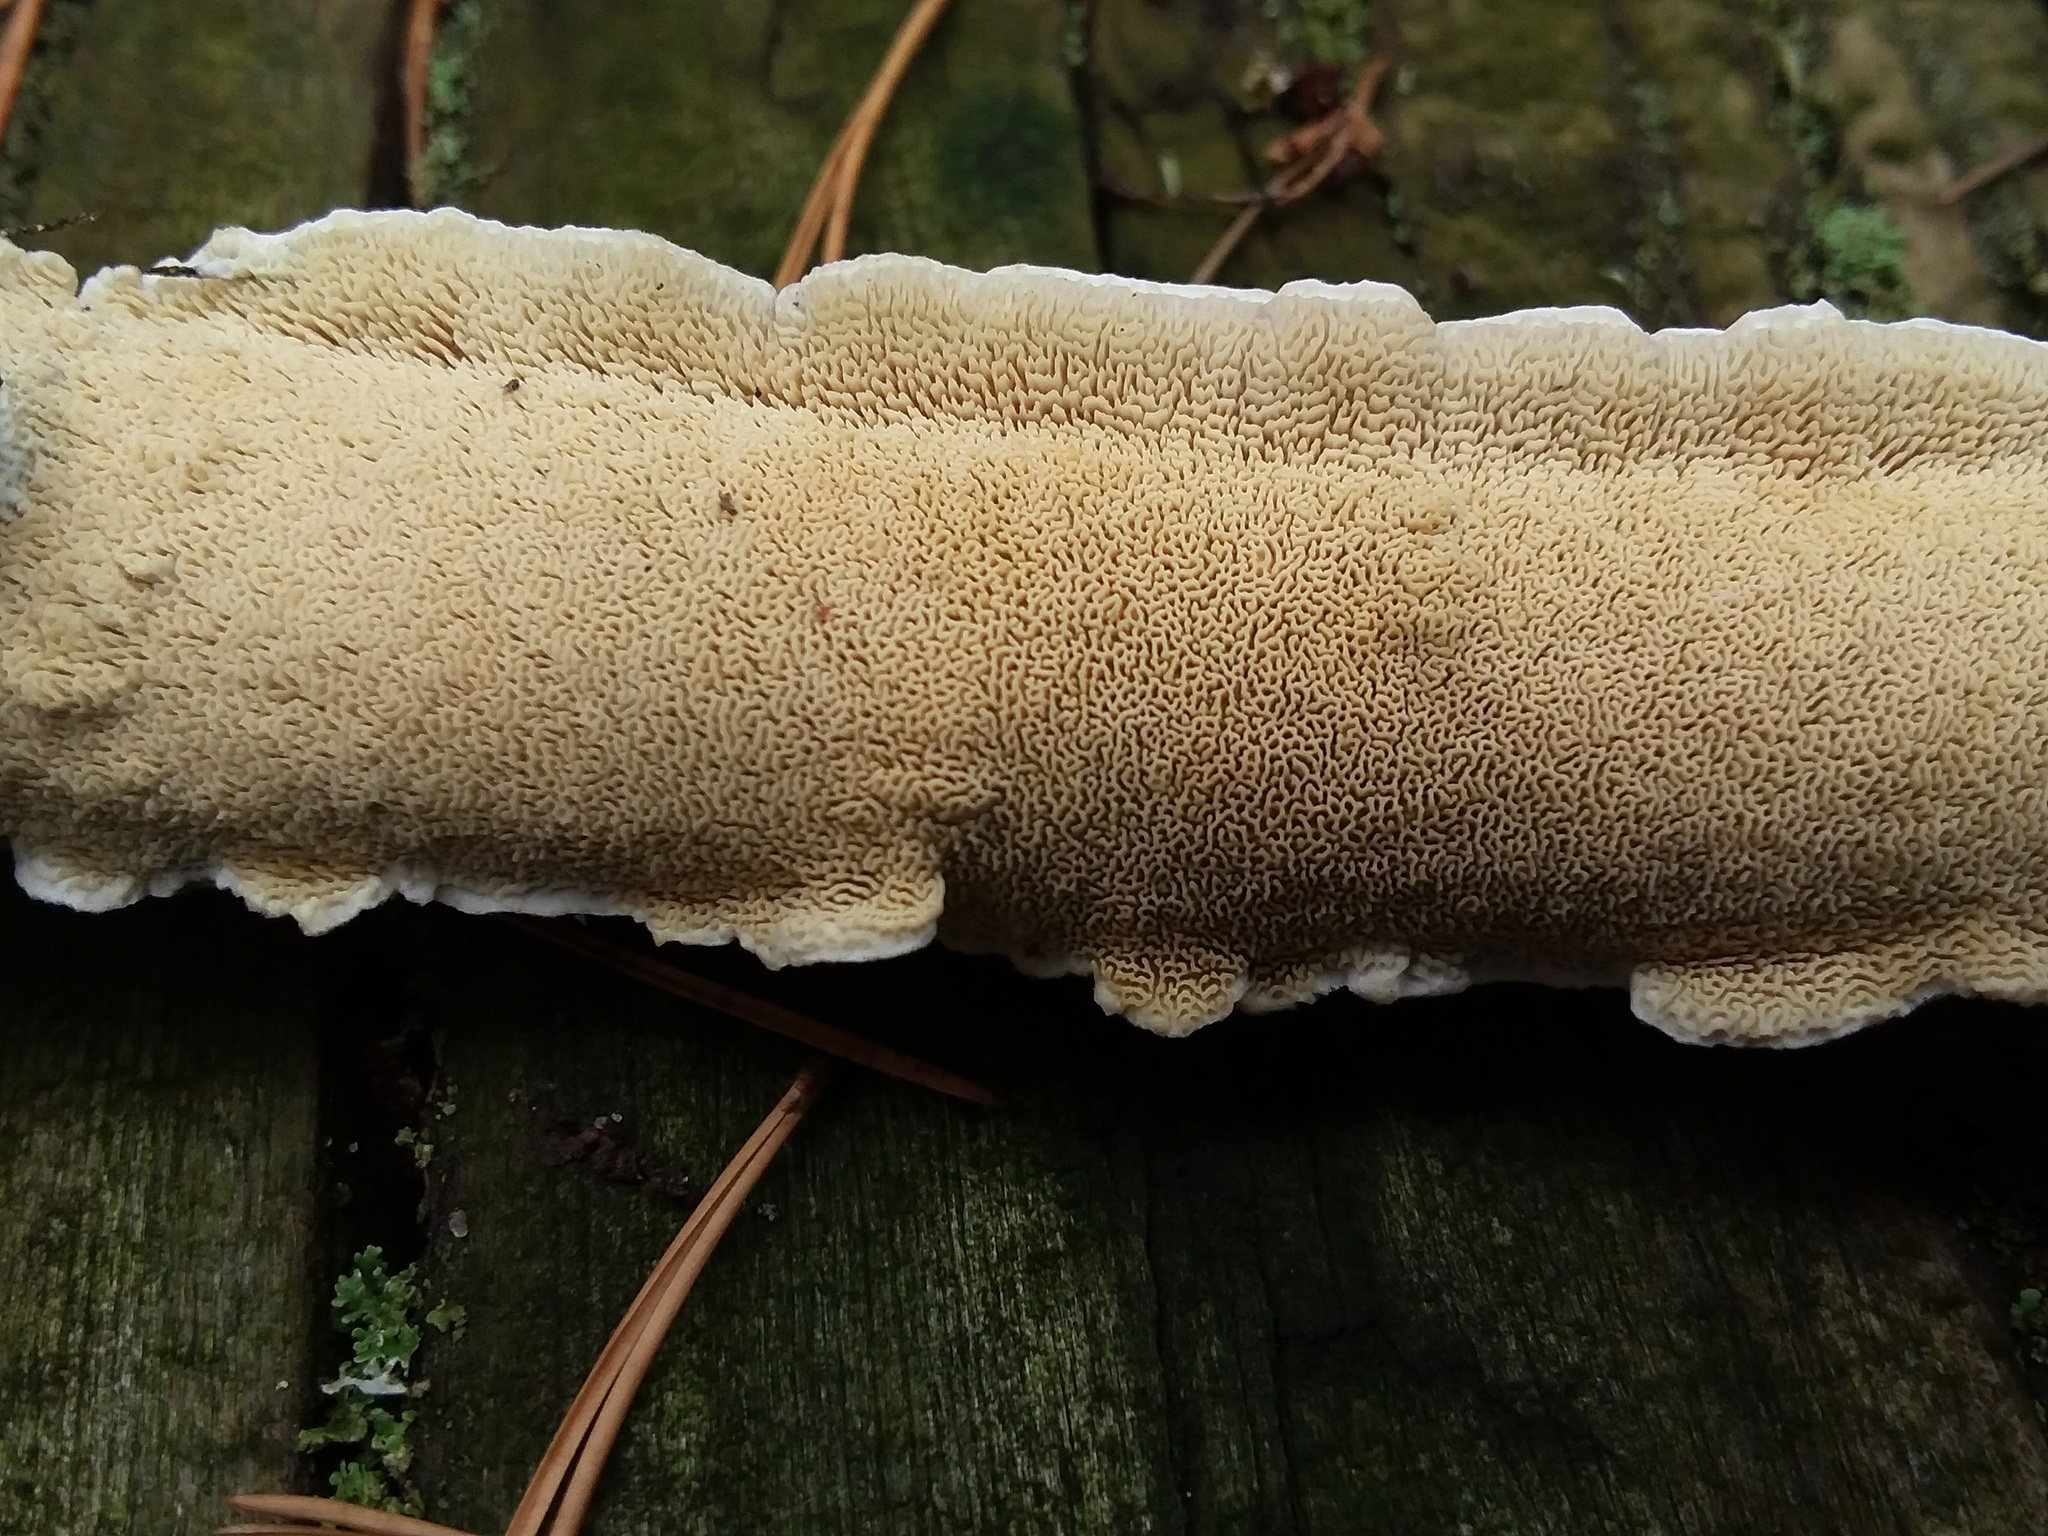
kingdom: Fungi
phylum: Basidiomycota
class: Agaricomycetes
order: Hymenochaetales
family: Schizoporaceae
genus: Schizopora
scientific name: Schizopora paradoxa
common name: Split porecrust
